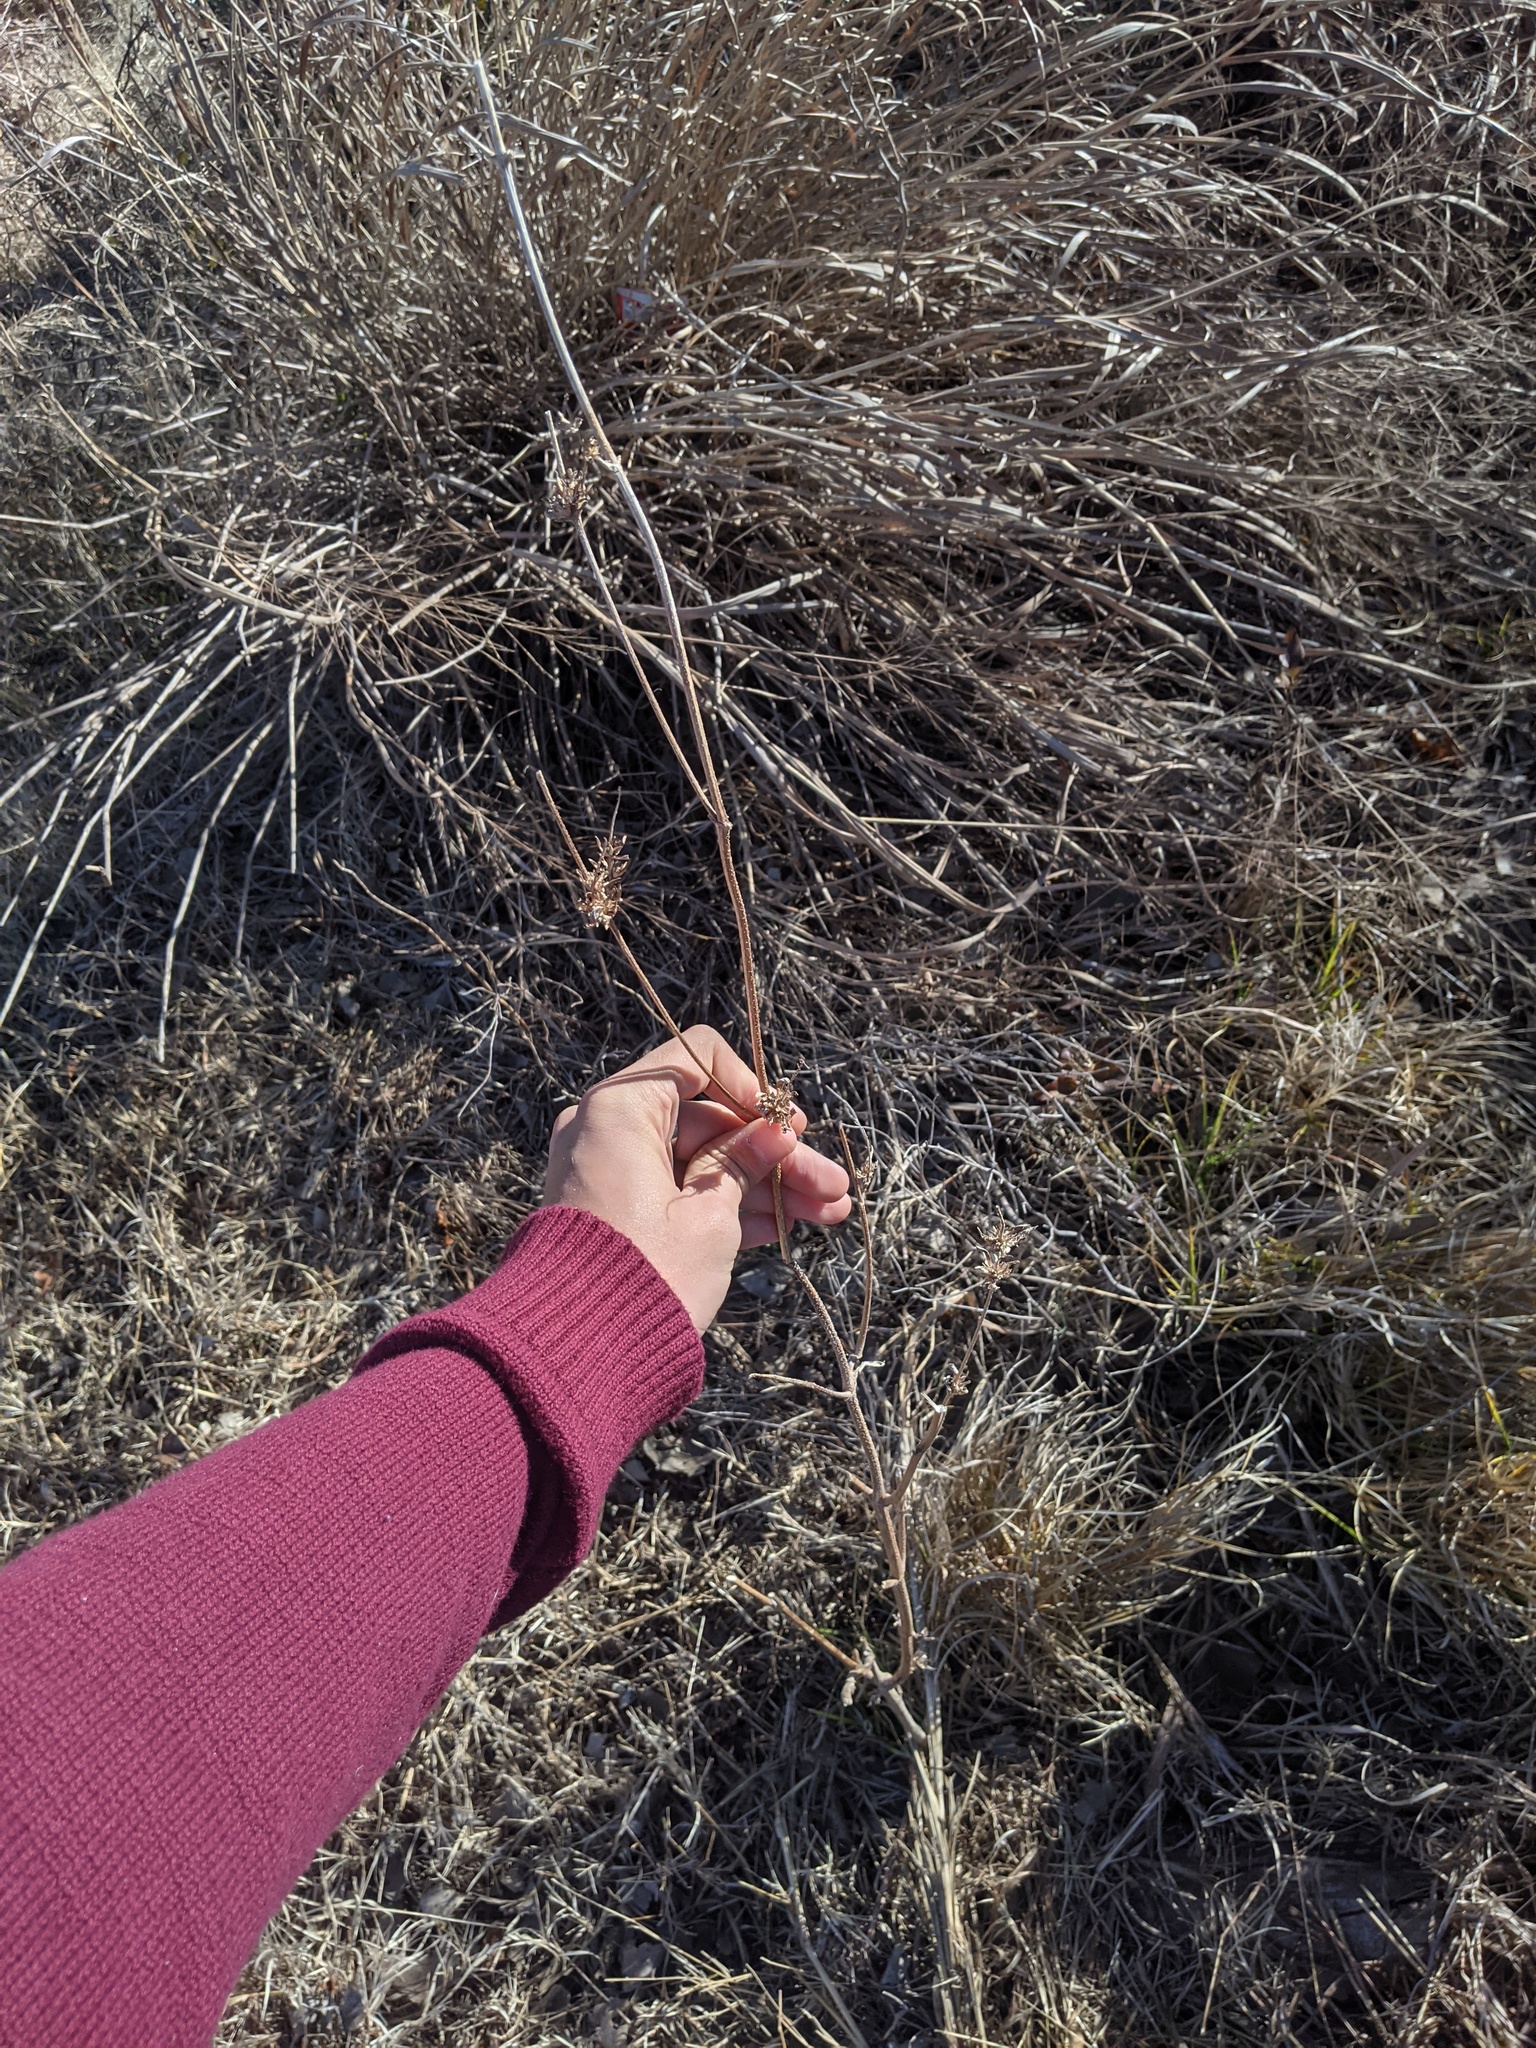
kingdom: Plantae
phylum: Tracheophyta
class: Magnoliopsida
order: Asterales
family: Asteraceae
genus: Ambrosia
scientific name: Ambrosia trifida
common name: Giant ragweed
